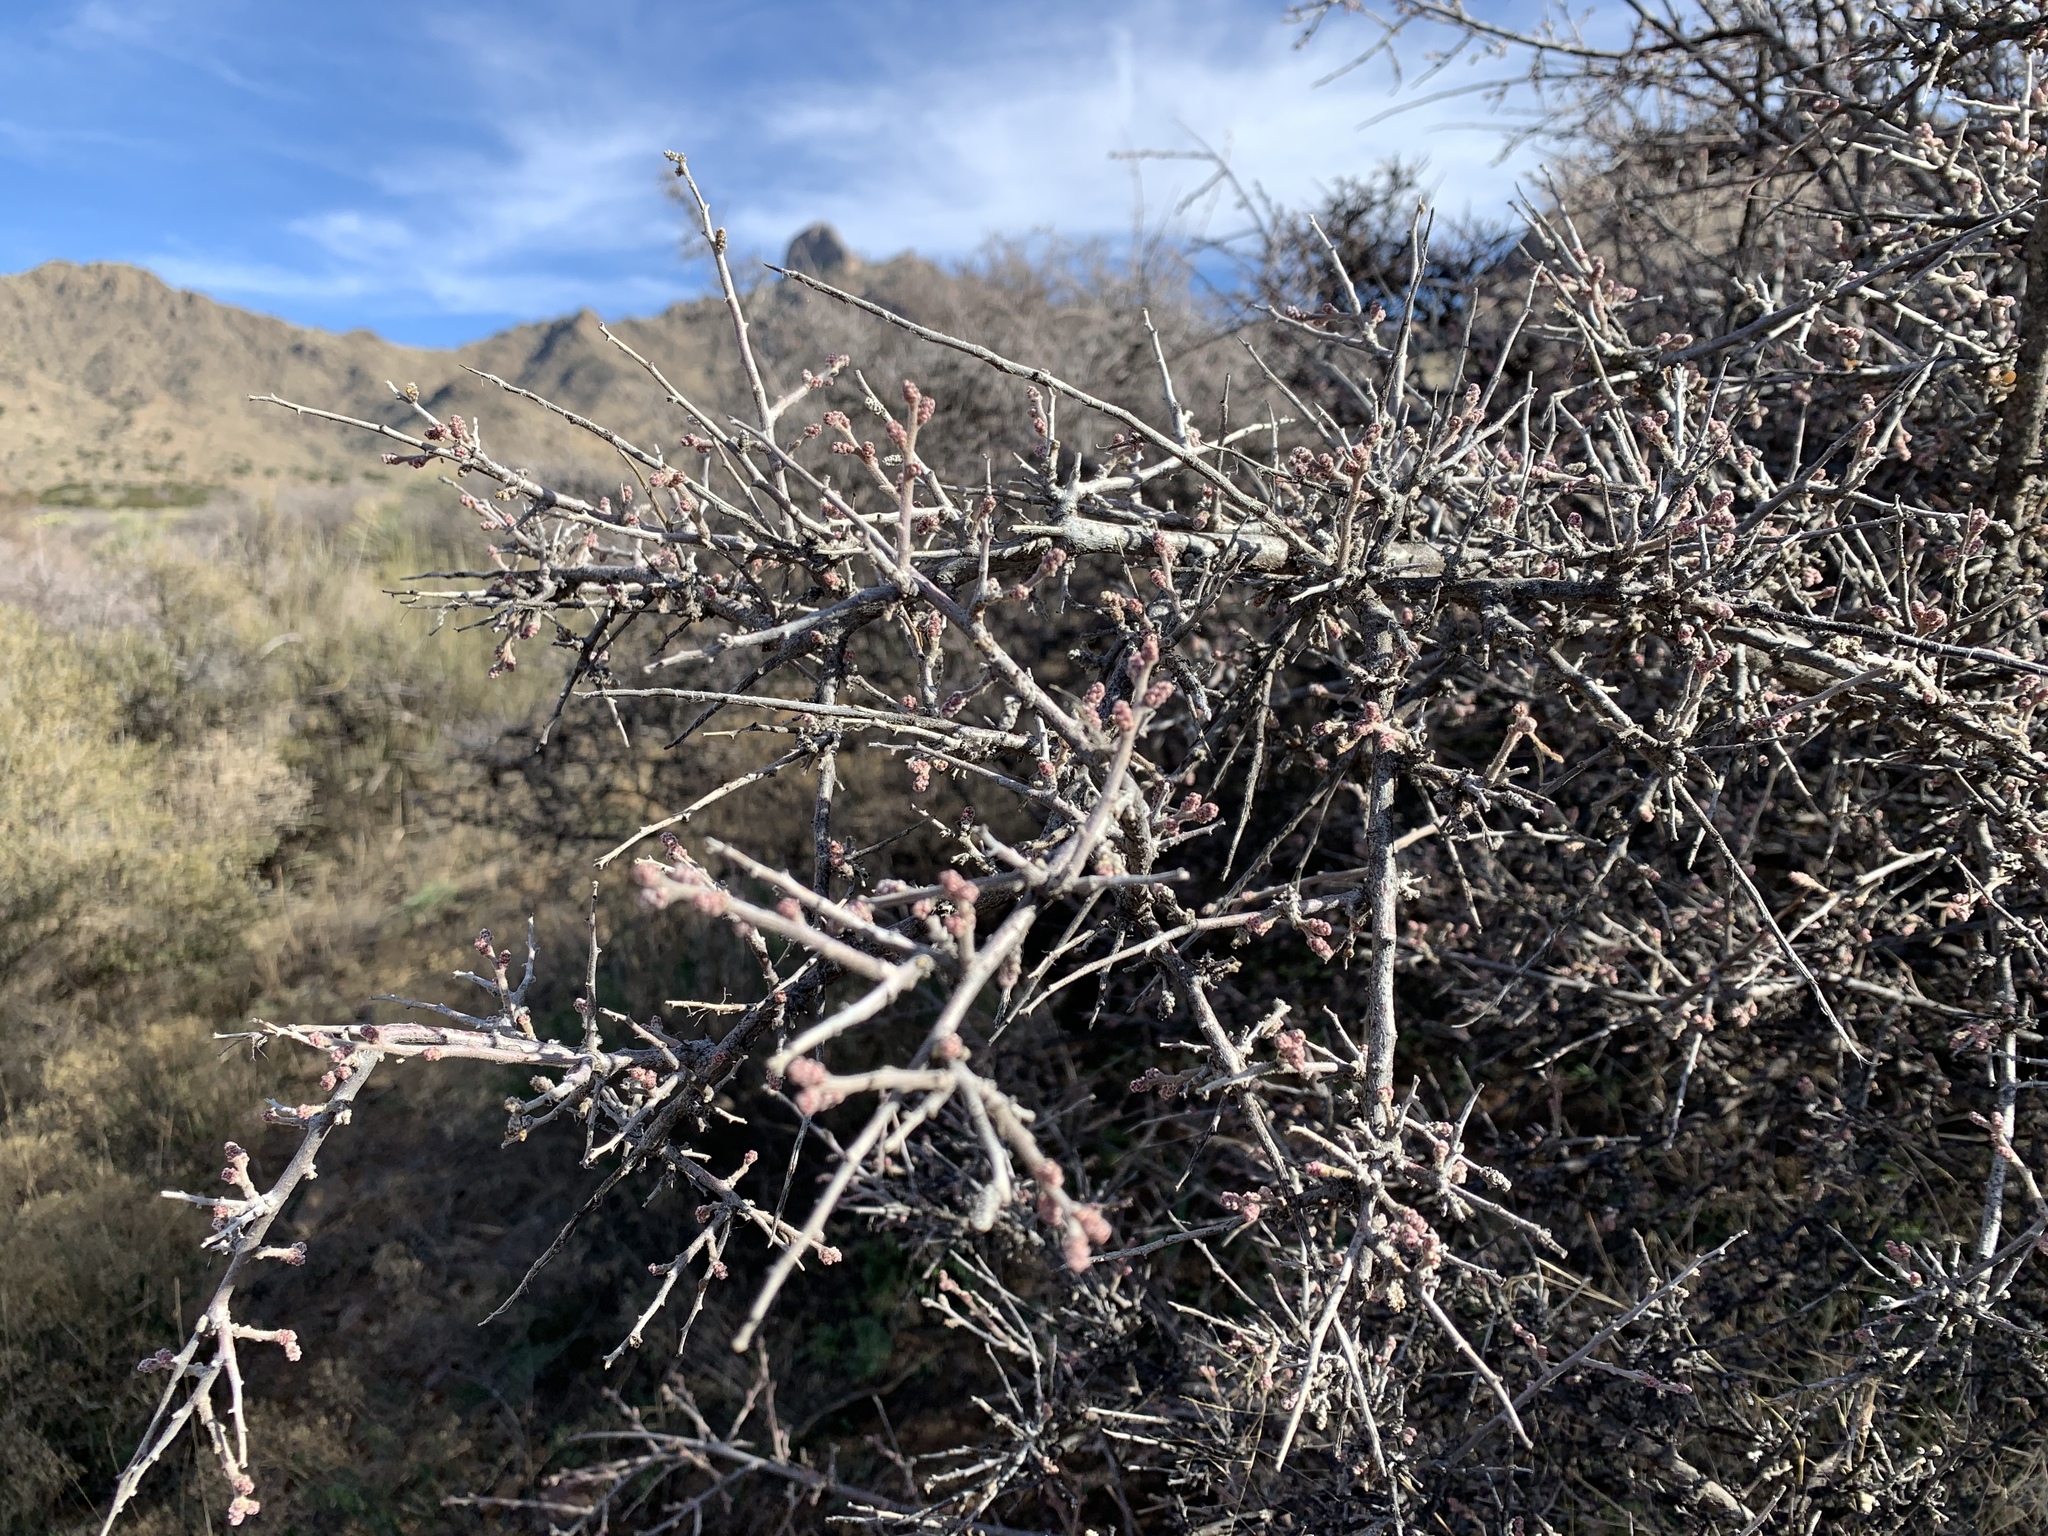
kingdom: Plantae
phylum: Tracheophyta
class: Magnoliopsida
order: Sapindales
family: Anacardiaceae
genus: Rhus
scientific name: Rhus microphylla
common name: Desert sumac
